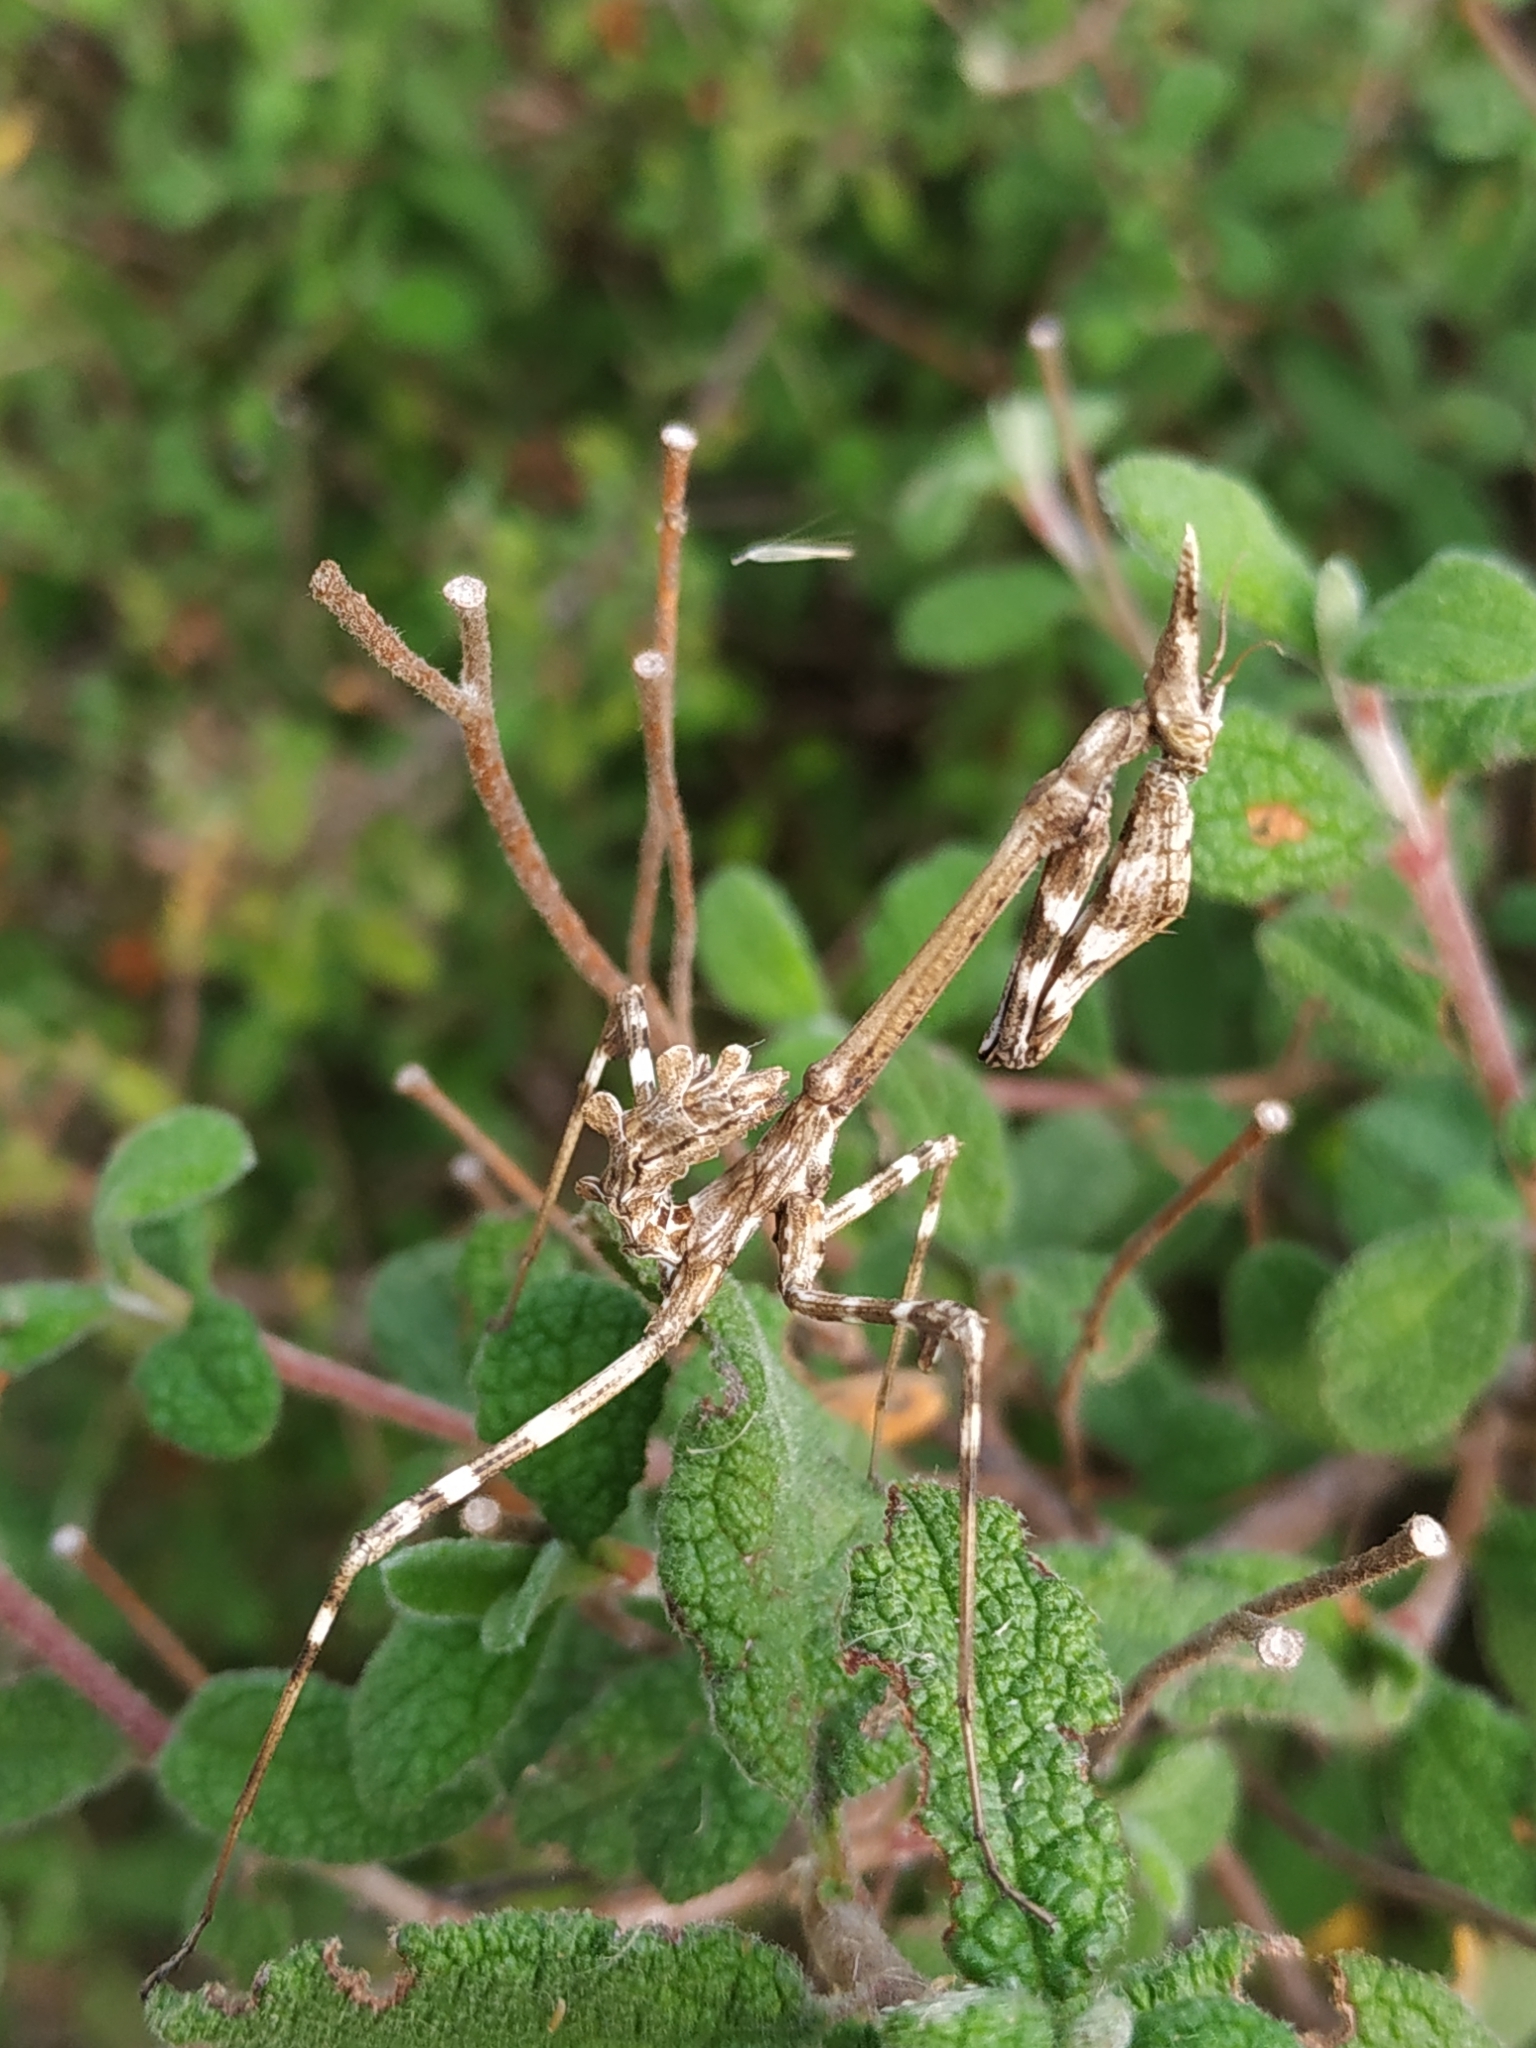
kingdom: Animalia
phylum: Arthropoda
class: Insecta
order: Mantodea
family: Empusidae
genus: Empusa
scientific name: Empusa pennata
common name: Conehead mantis
